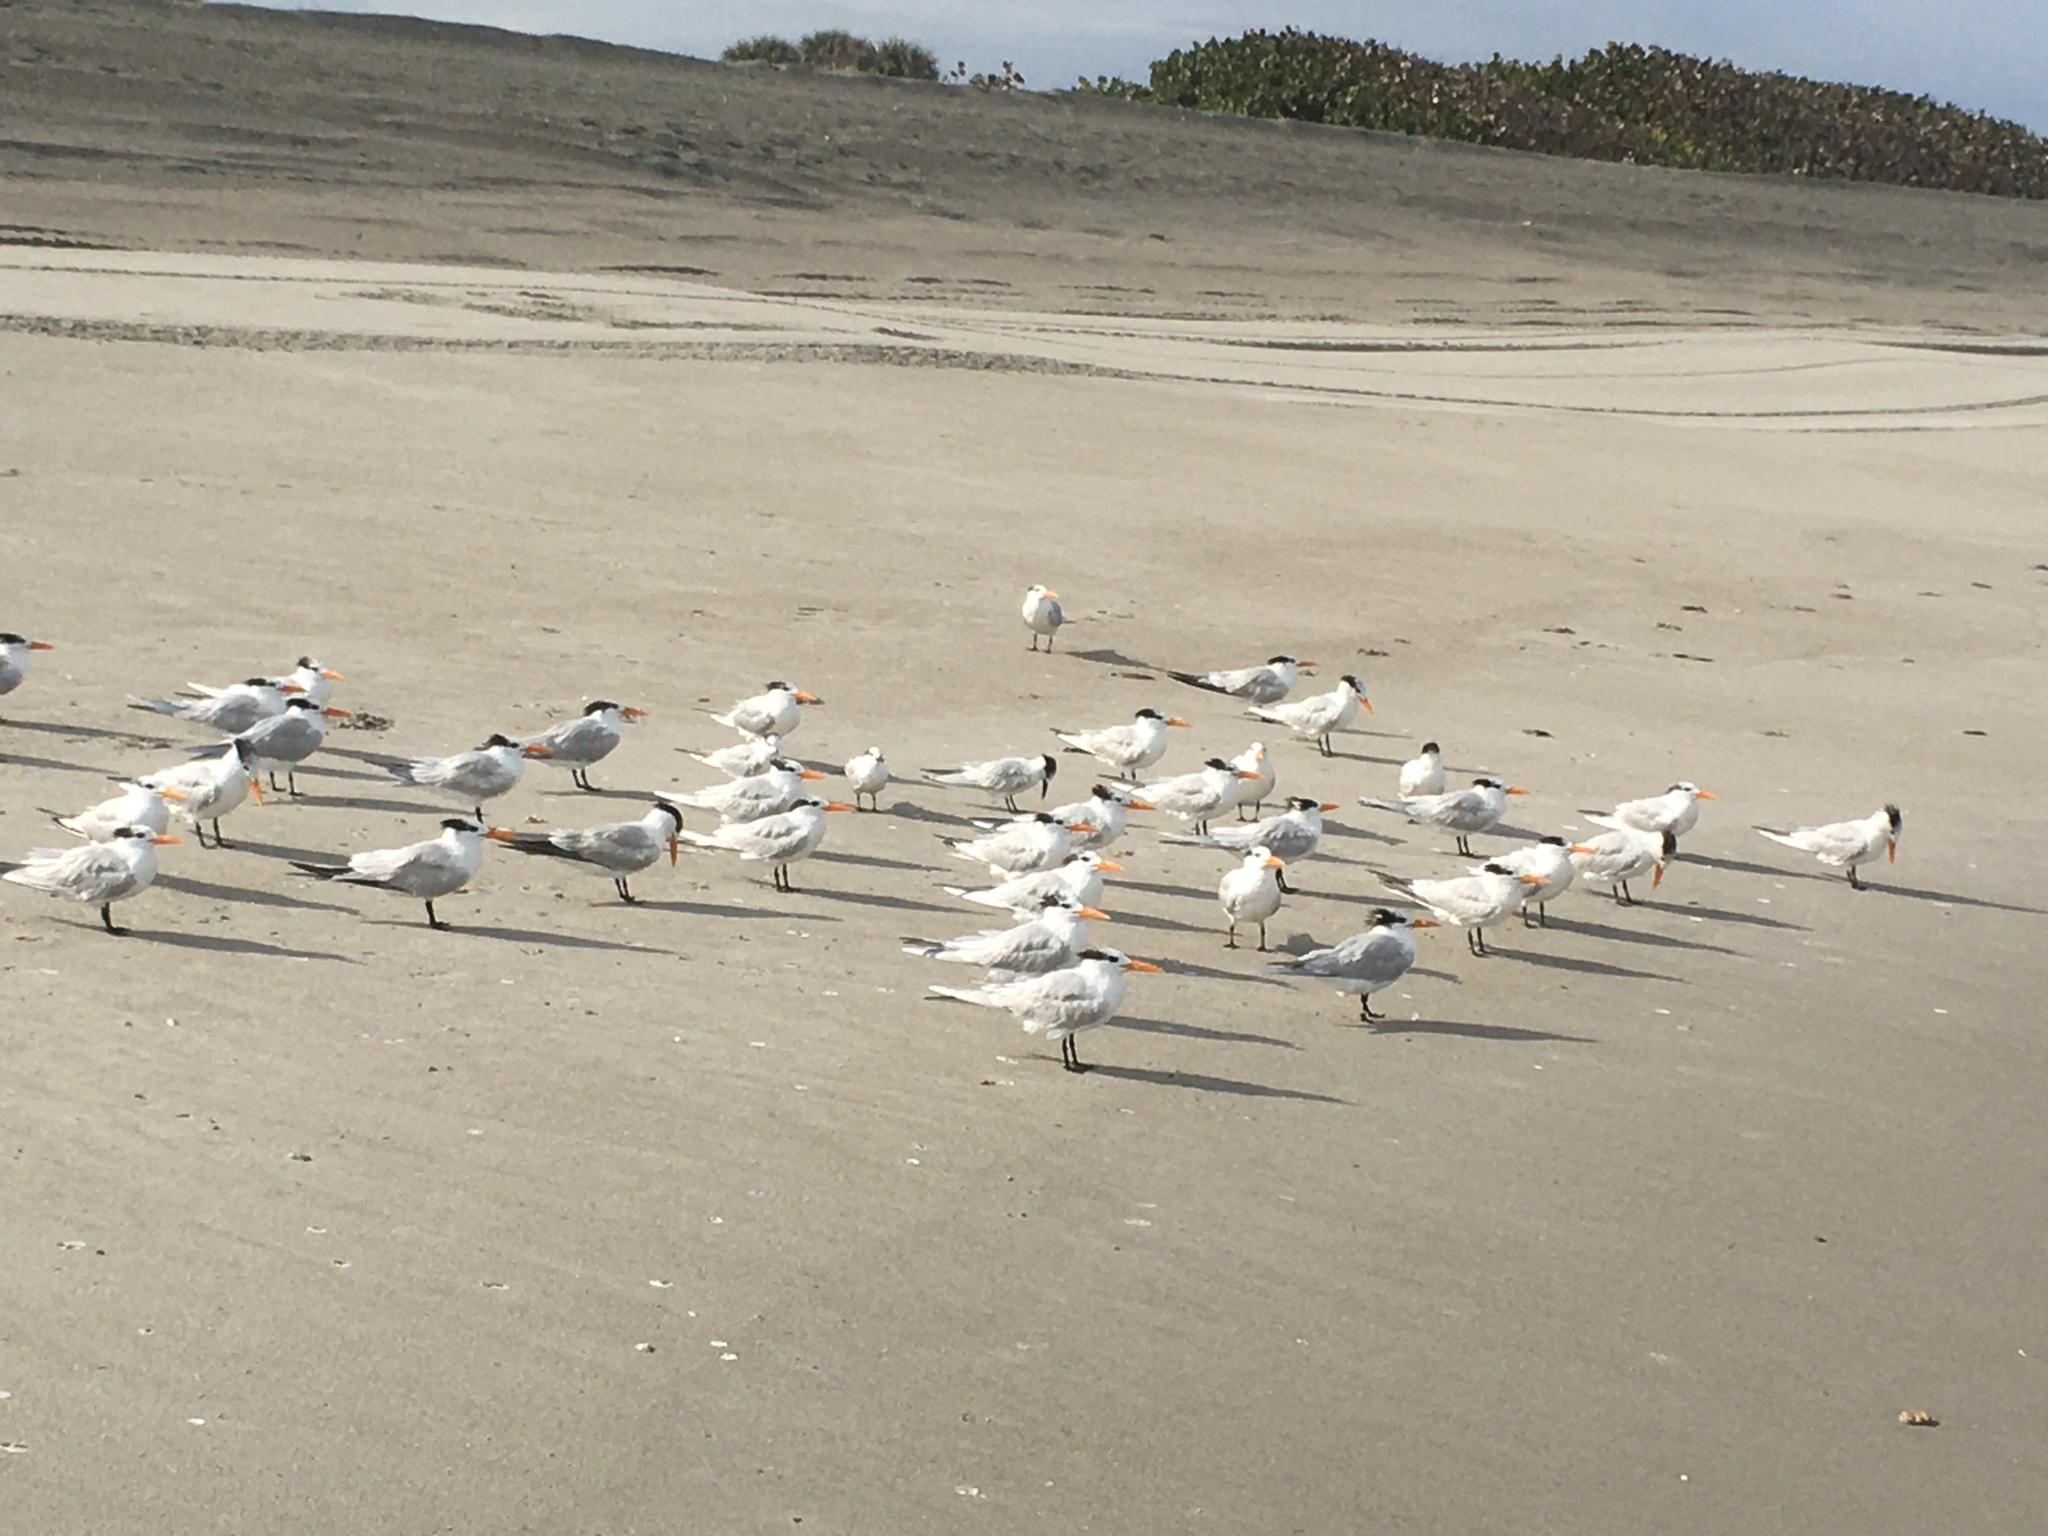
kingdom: Animalia
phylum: Chordata
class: Aves
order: Charadriiformes
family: Laridae
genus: Thalasseus
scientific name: Thalasseus maximus
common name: Royal tern
